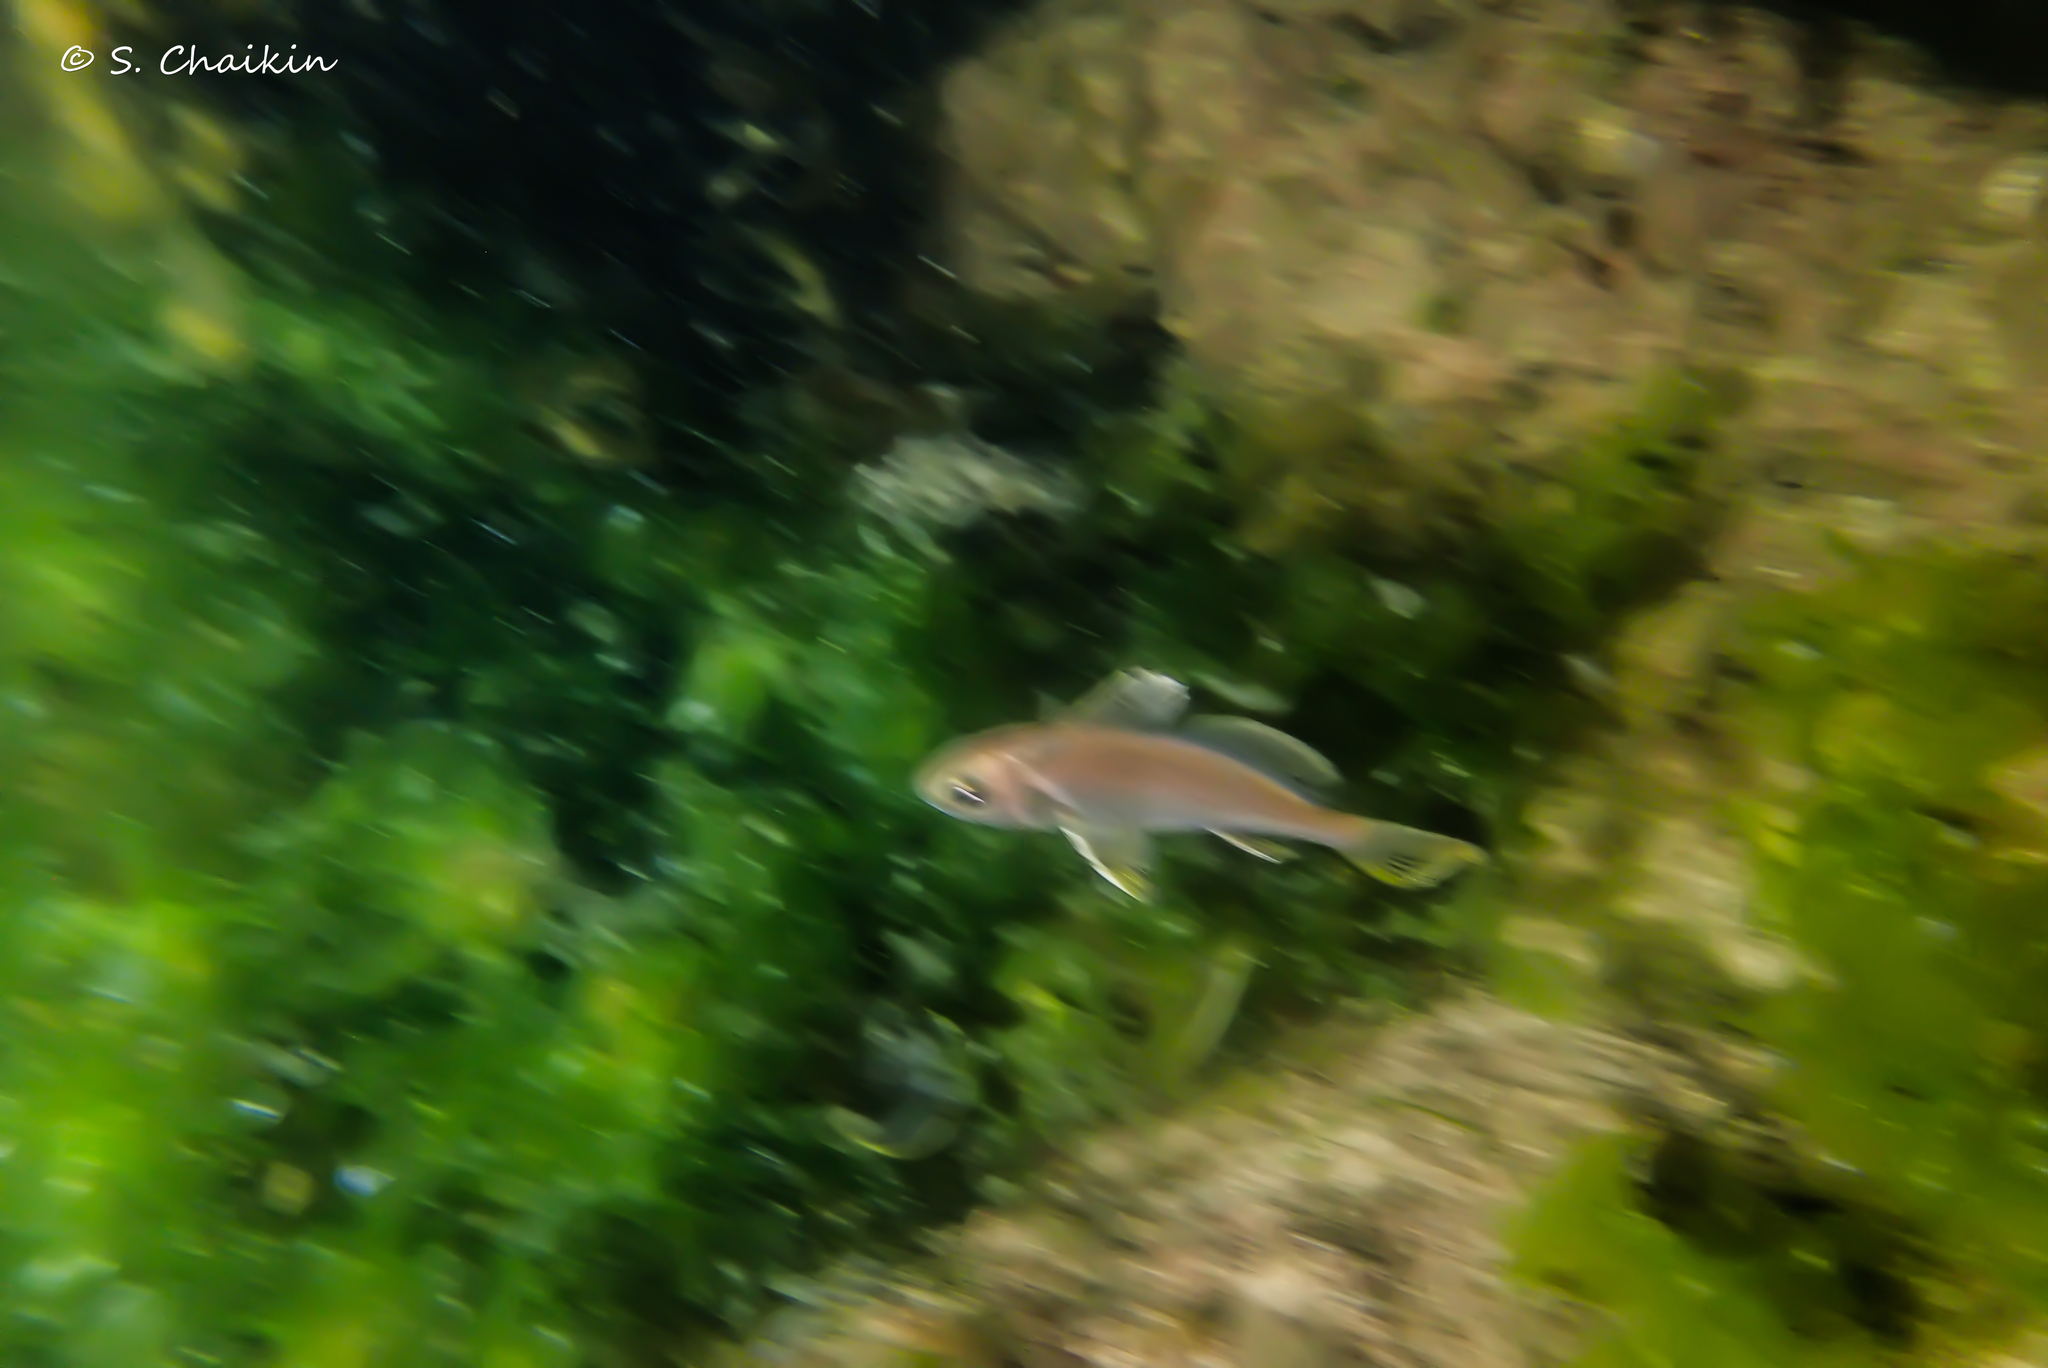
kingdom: Animalia
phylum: Chordata
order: Perciformes
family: Sciaenidae
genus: Sciaena
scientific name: Sciaena umbra
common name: Brown meagre
